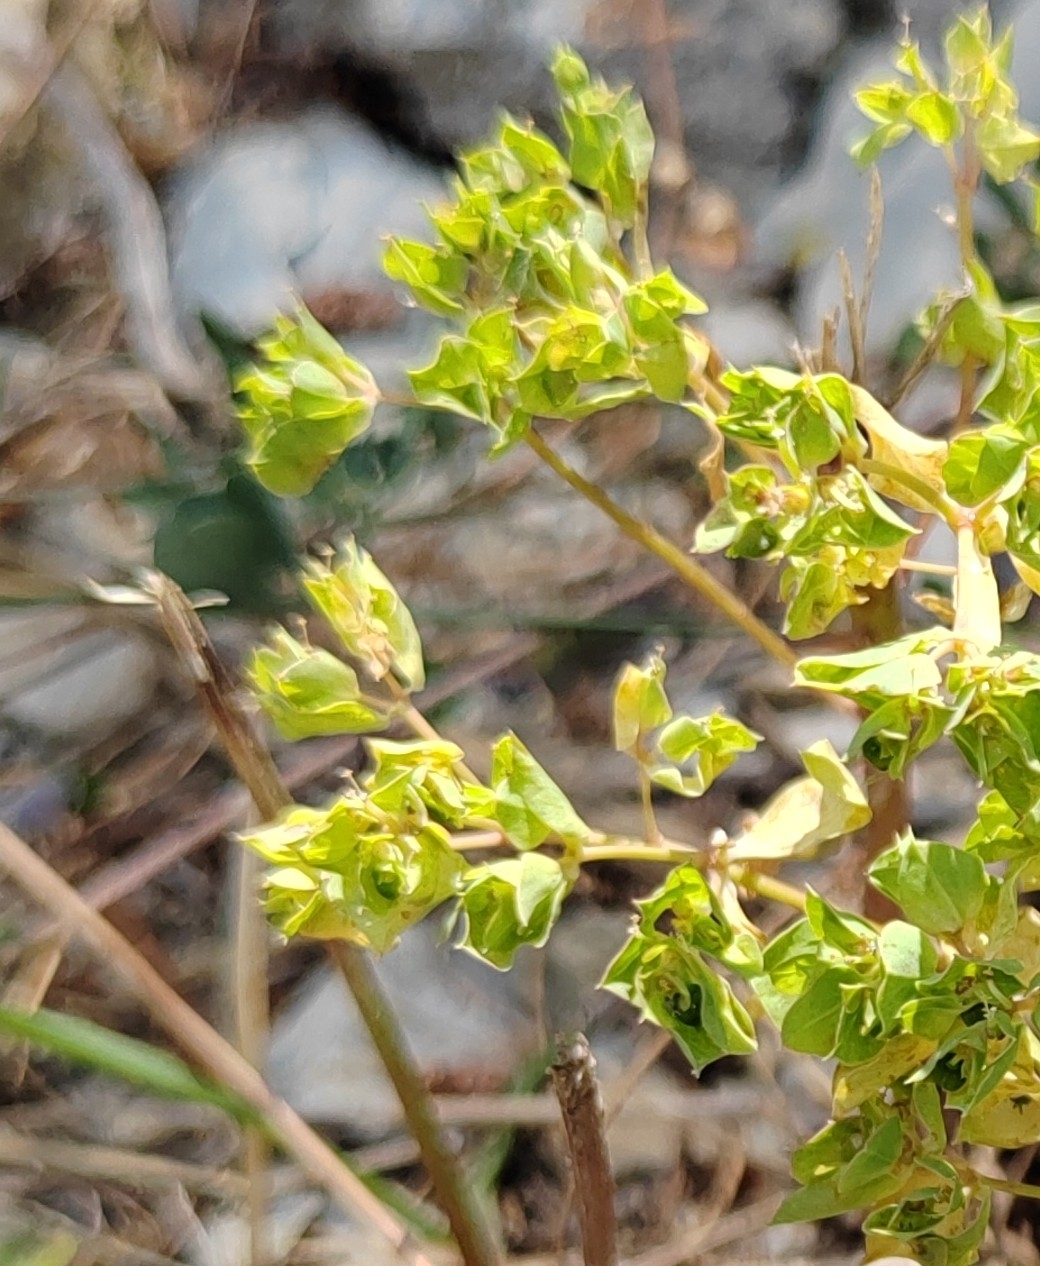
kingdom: Plantae
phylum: Tracheophyta
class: Magnoliopsida
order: Malpighiales
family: Euphorbiaceae
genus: Euphorbia
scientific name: Euphorbia falcata
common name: Sickle spurge
